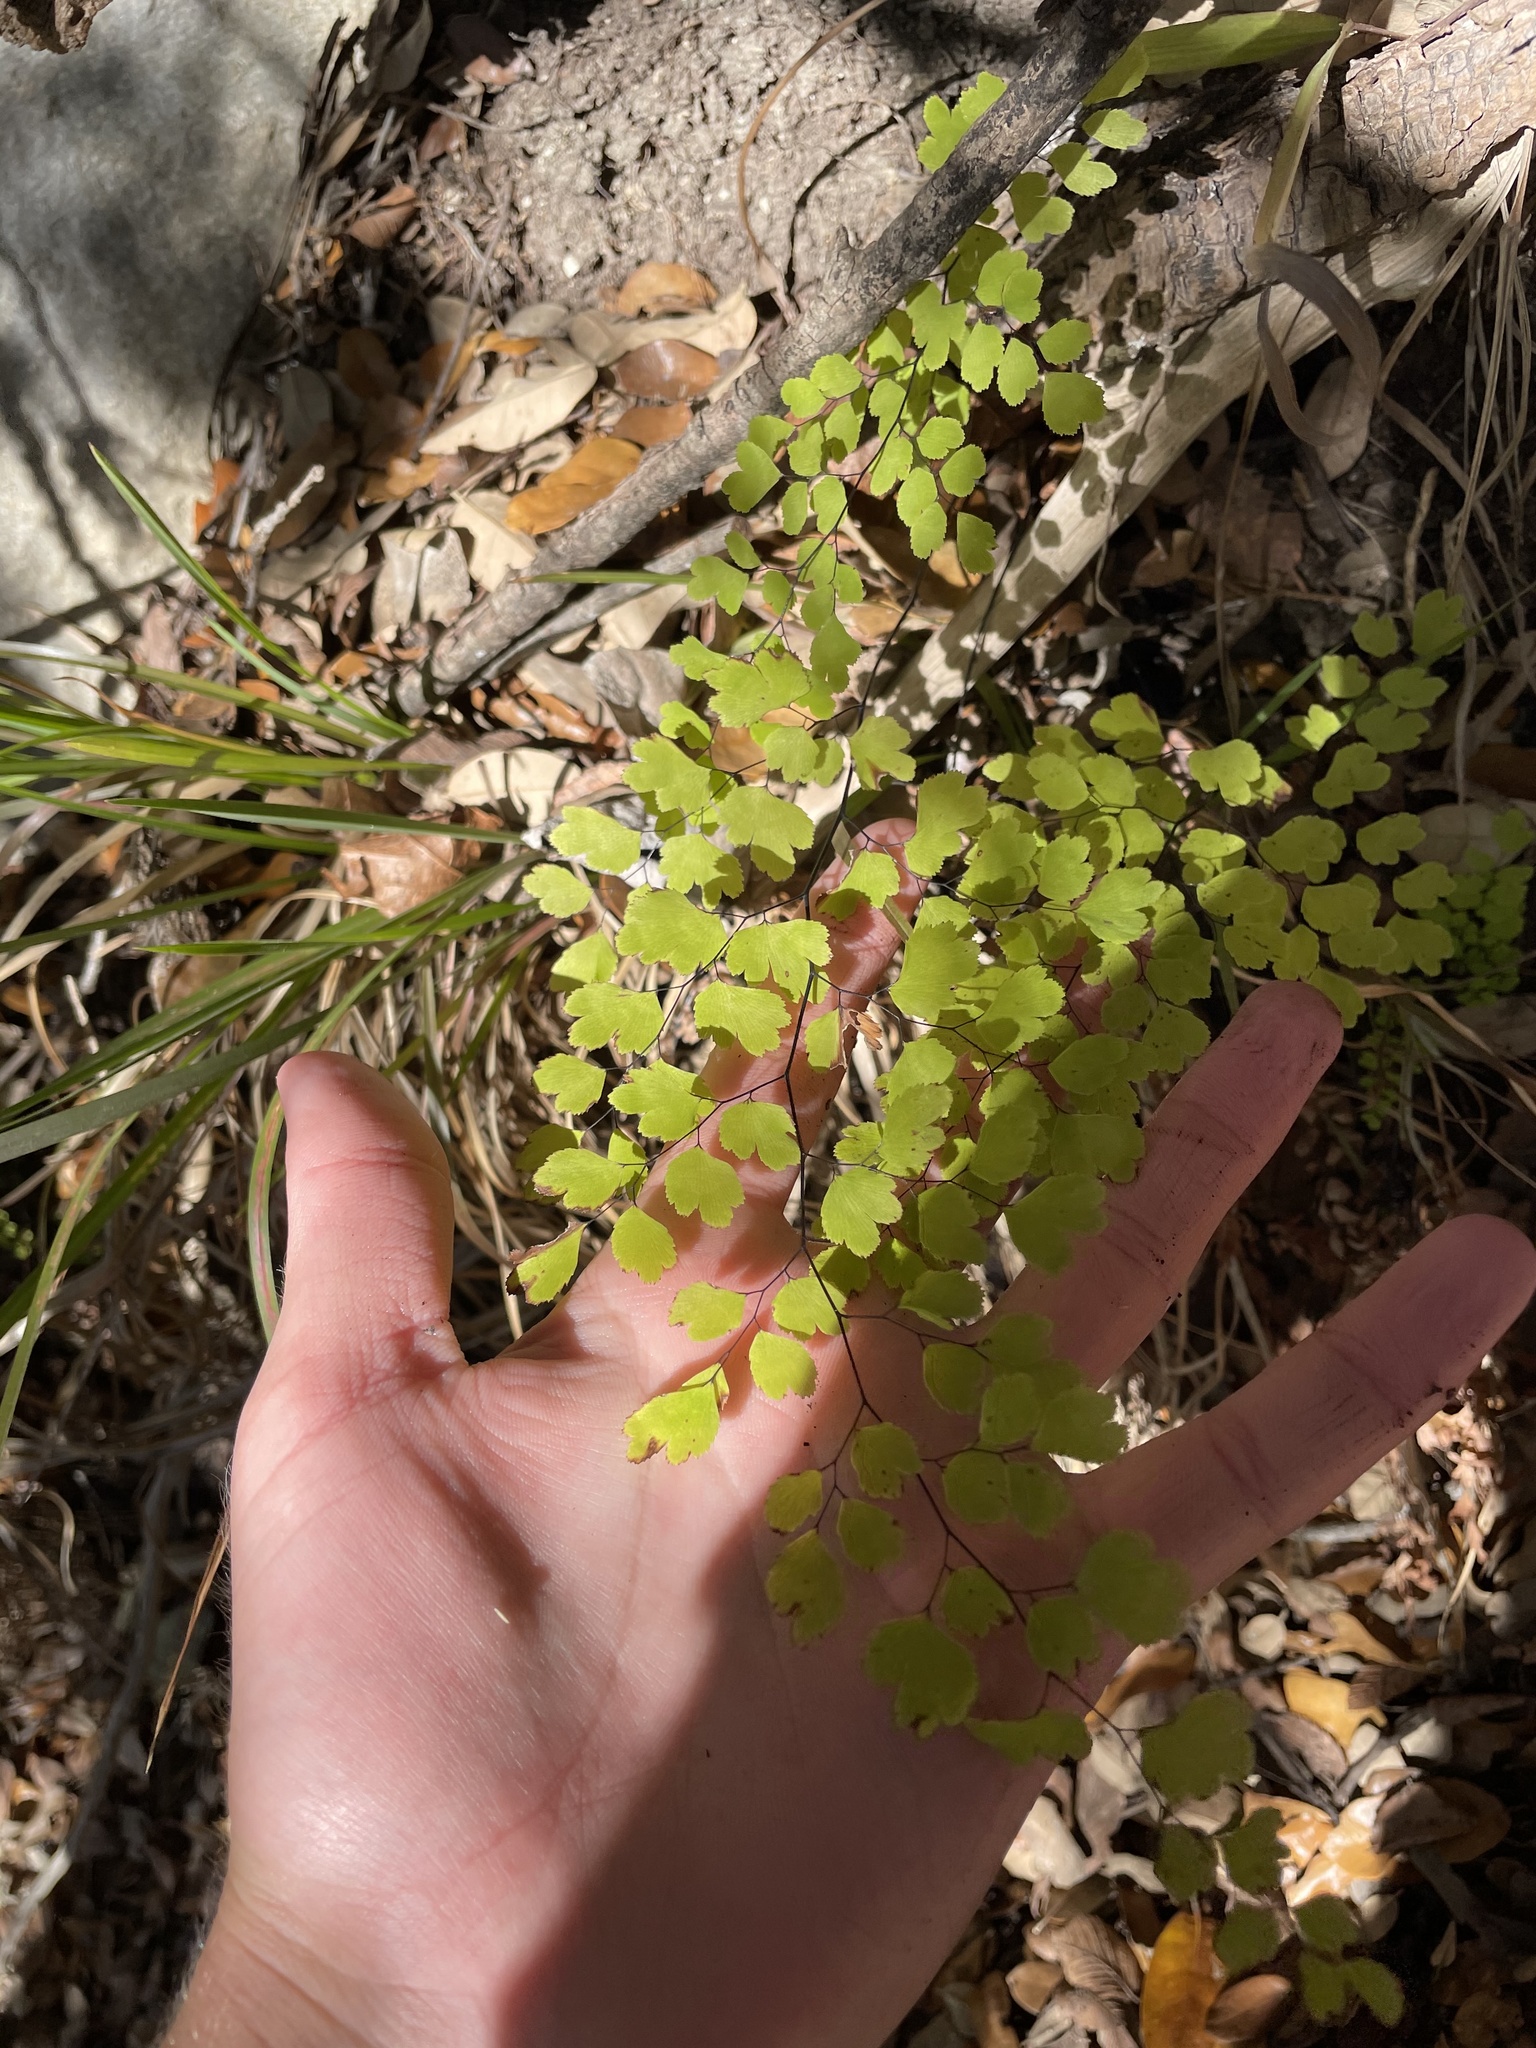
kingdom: Plantae
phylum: Tracheophyta
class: Polypodiopsida
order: Polypodiales
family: Pteridaceae
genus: Adiantum
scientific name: Adiantum capillus-veneris
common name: Maidenhair fern
